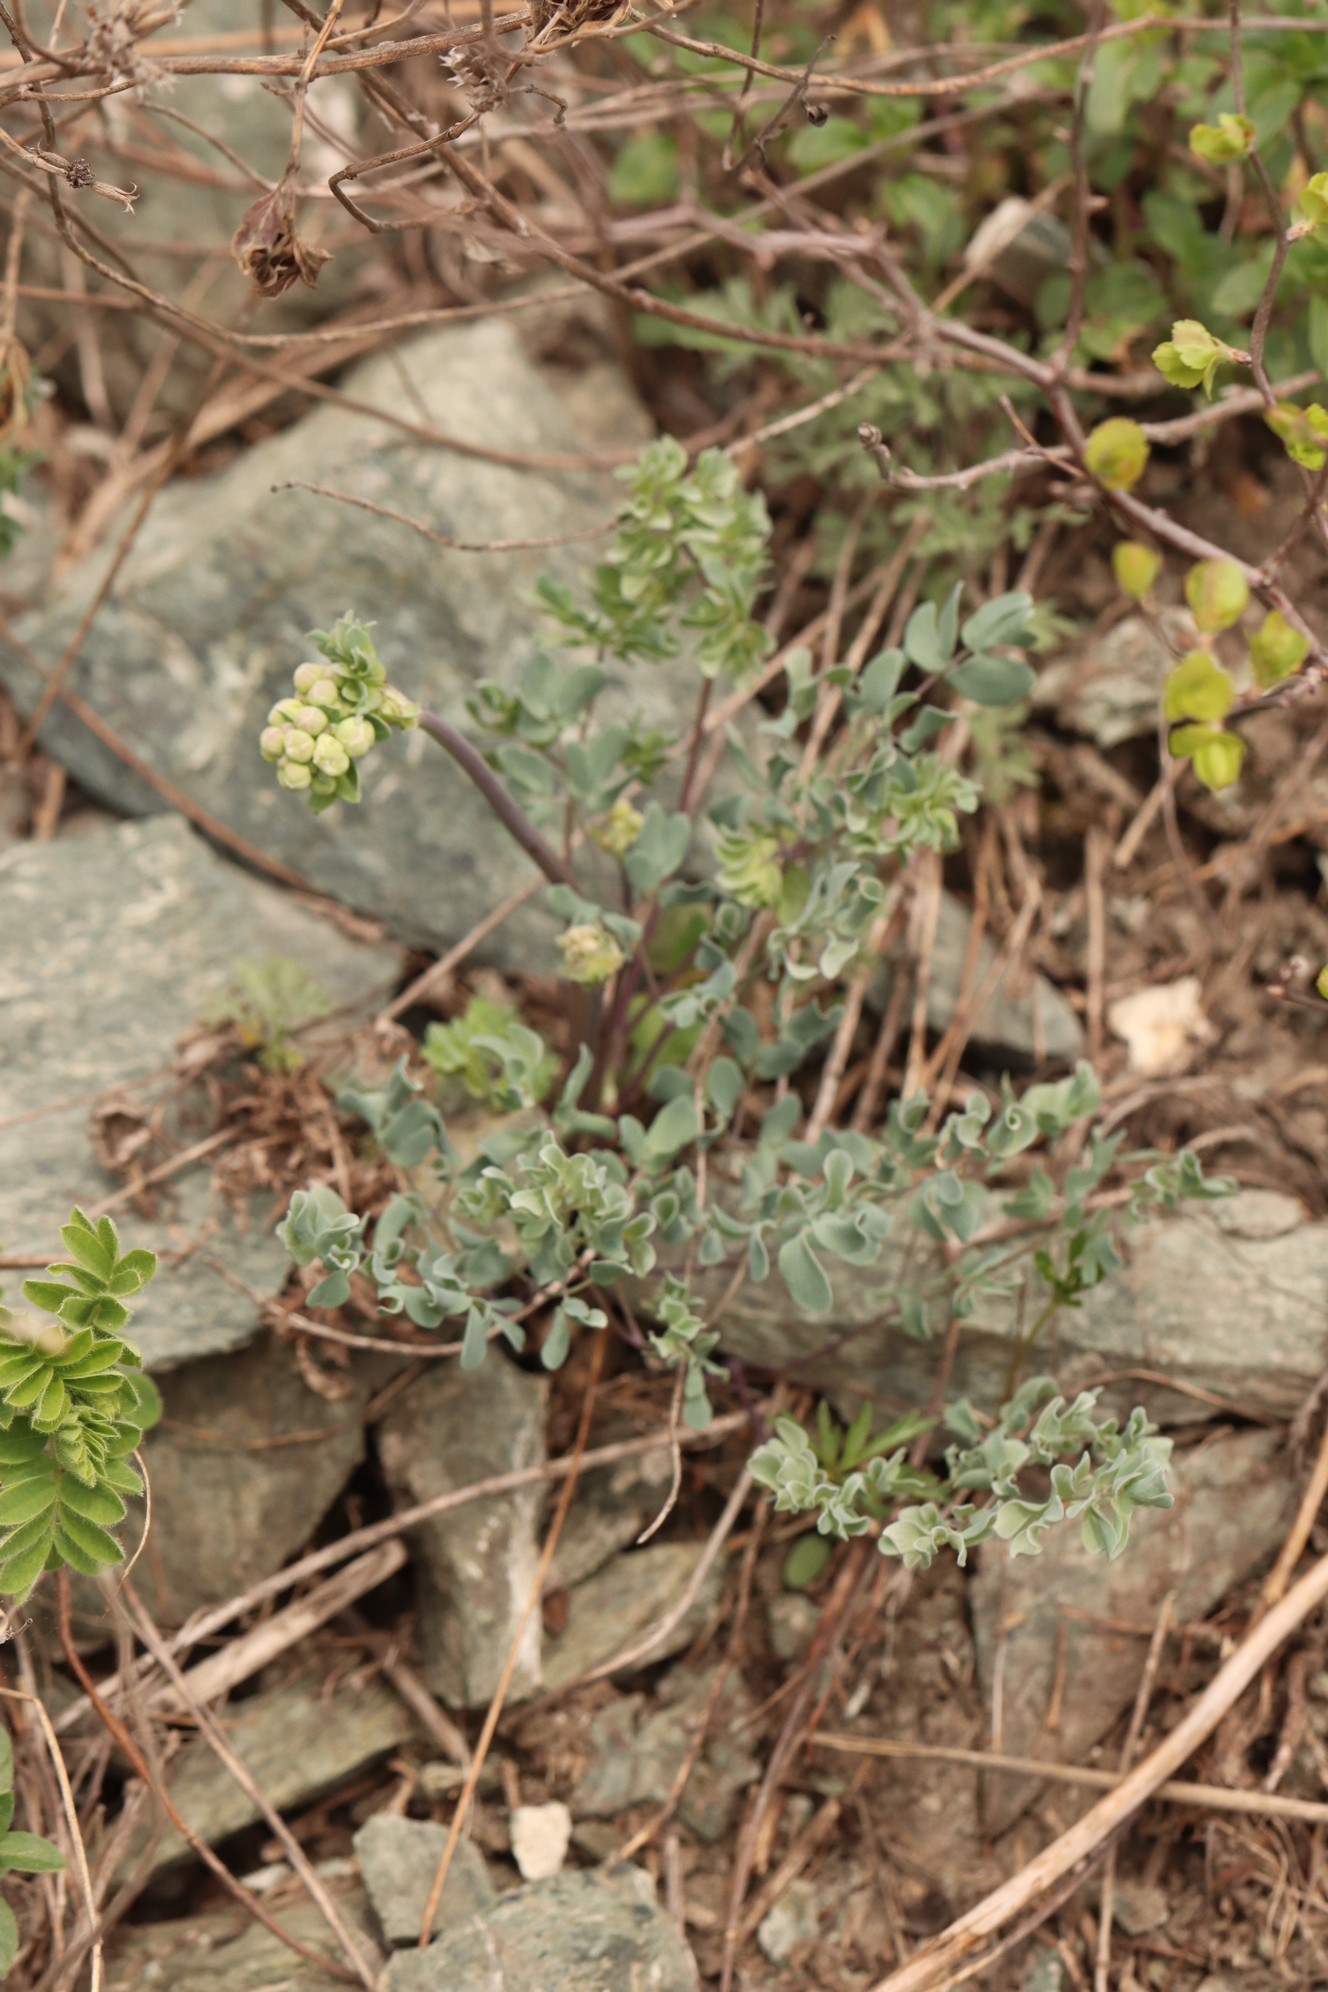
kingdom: Plantae
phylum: Tracheophyta
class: Magnoliopsida
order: Ranunculales
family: Ranunculaceae
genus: Thalictrum
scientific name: Thalictrum petaloideum
